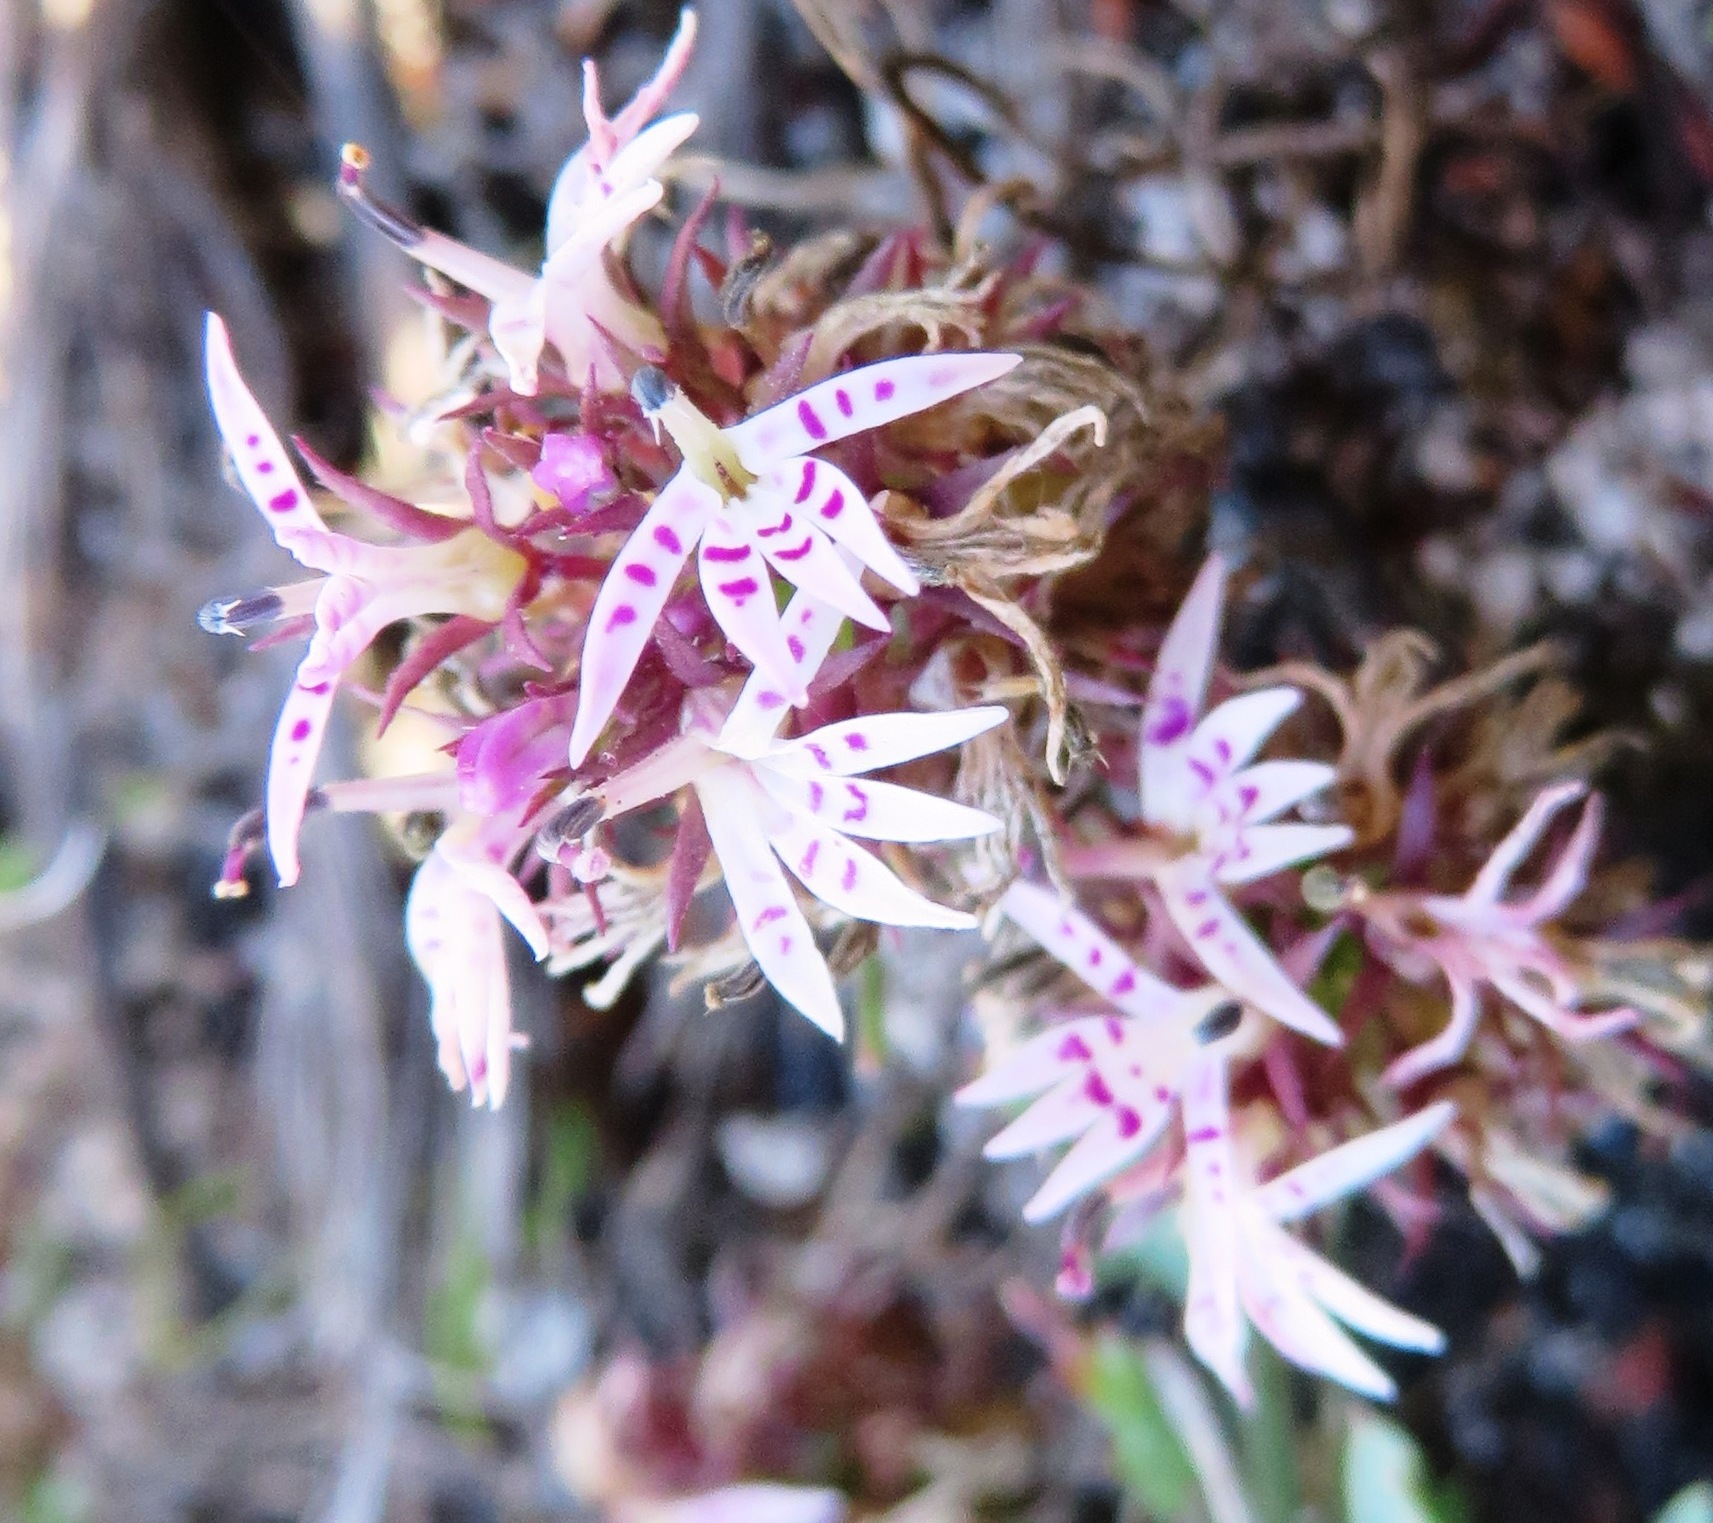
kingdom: Plantae
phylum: Tracheophyta
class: Magnoliopsida
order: Asterales
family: Campanulaceae
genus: Lobelia
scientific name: Lobelia jasionoides
